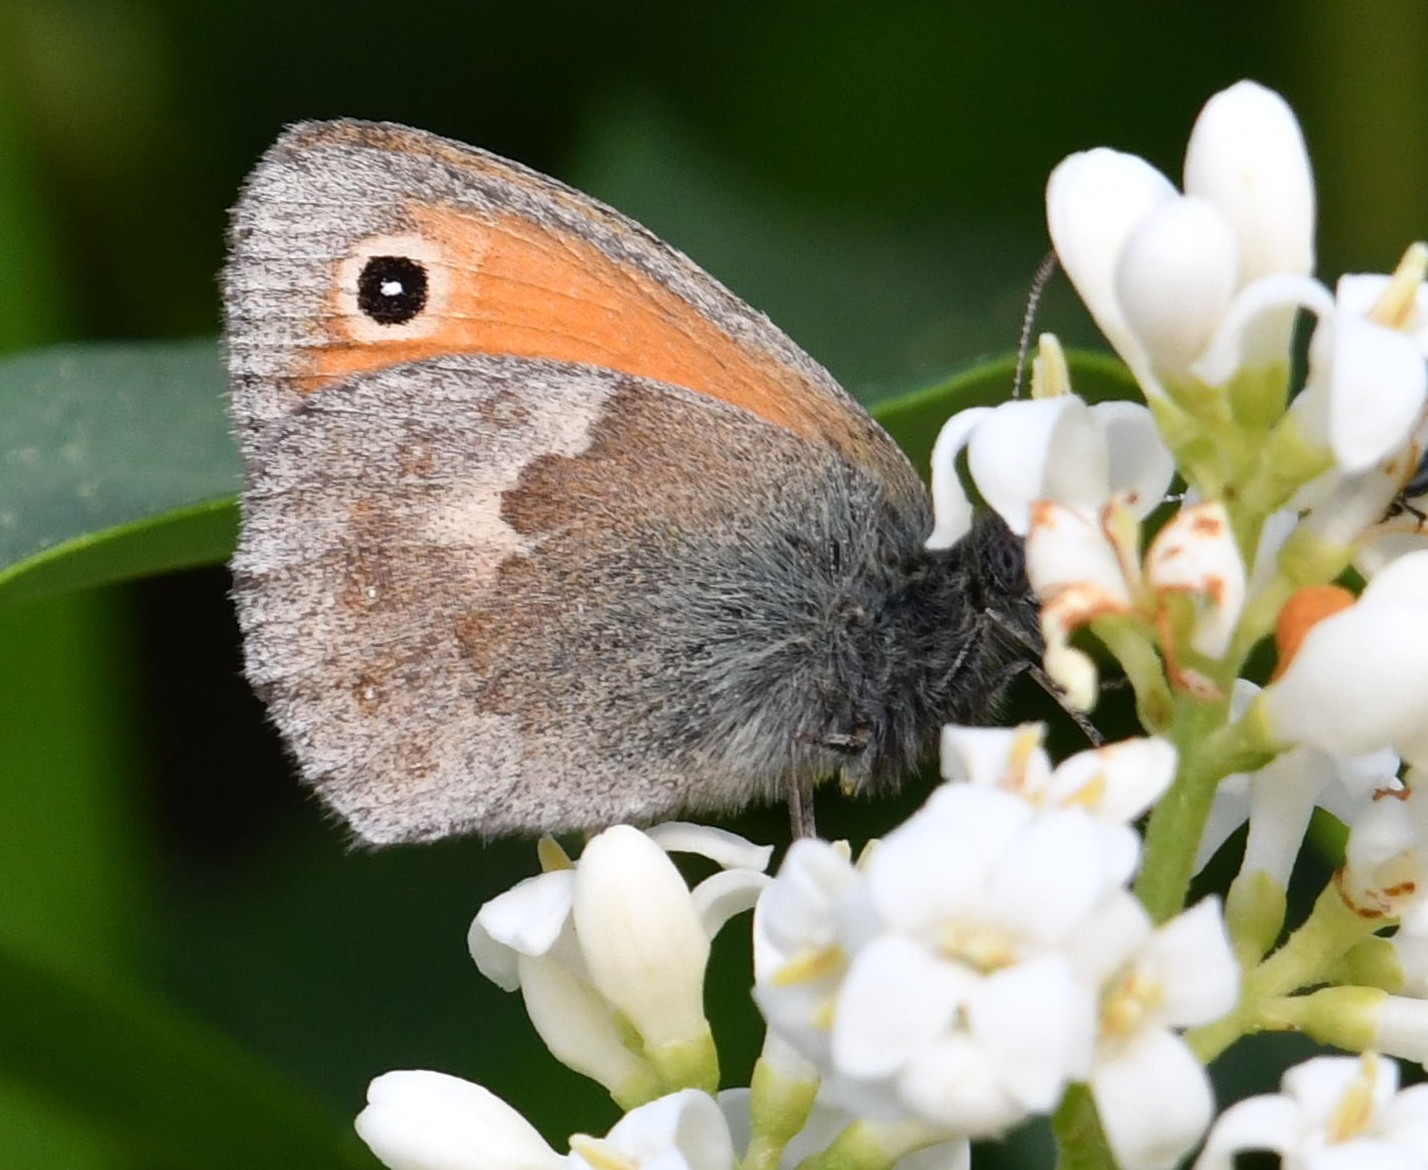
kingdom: Animalia
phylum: Arthropoda
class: Insecta
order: Lepidoptera
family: Nymphalidae
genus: Coenonympha
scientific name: Coenonympha pamphilus
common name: Small heath
